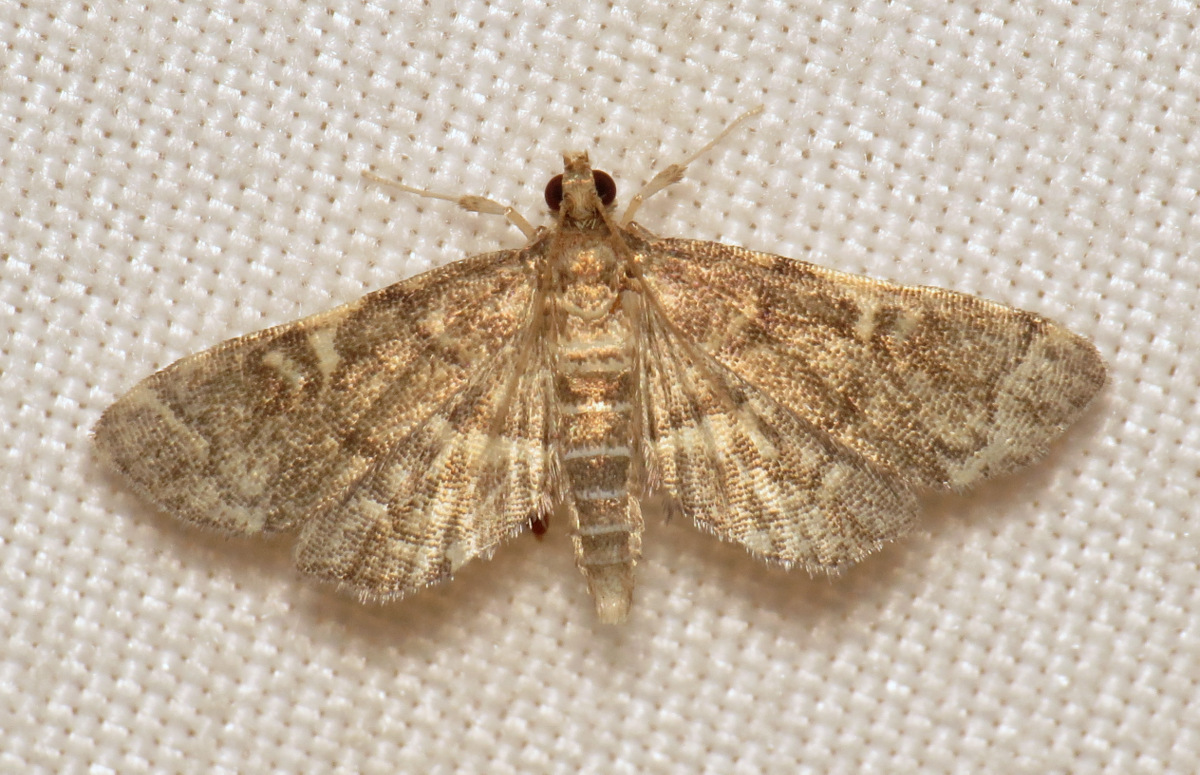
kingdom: Animalia
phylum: Arthropoda
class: Insecta
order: Lepidoptera
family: Crambidae
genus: Anageshna
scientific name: Anageshna primordialis
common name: Yellow-spotted webworm moth
